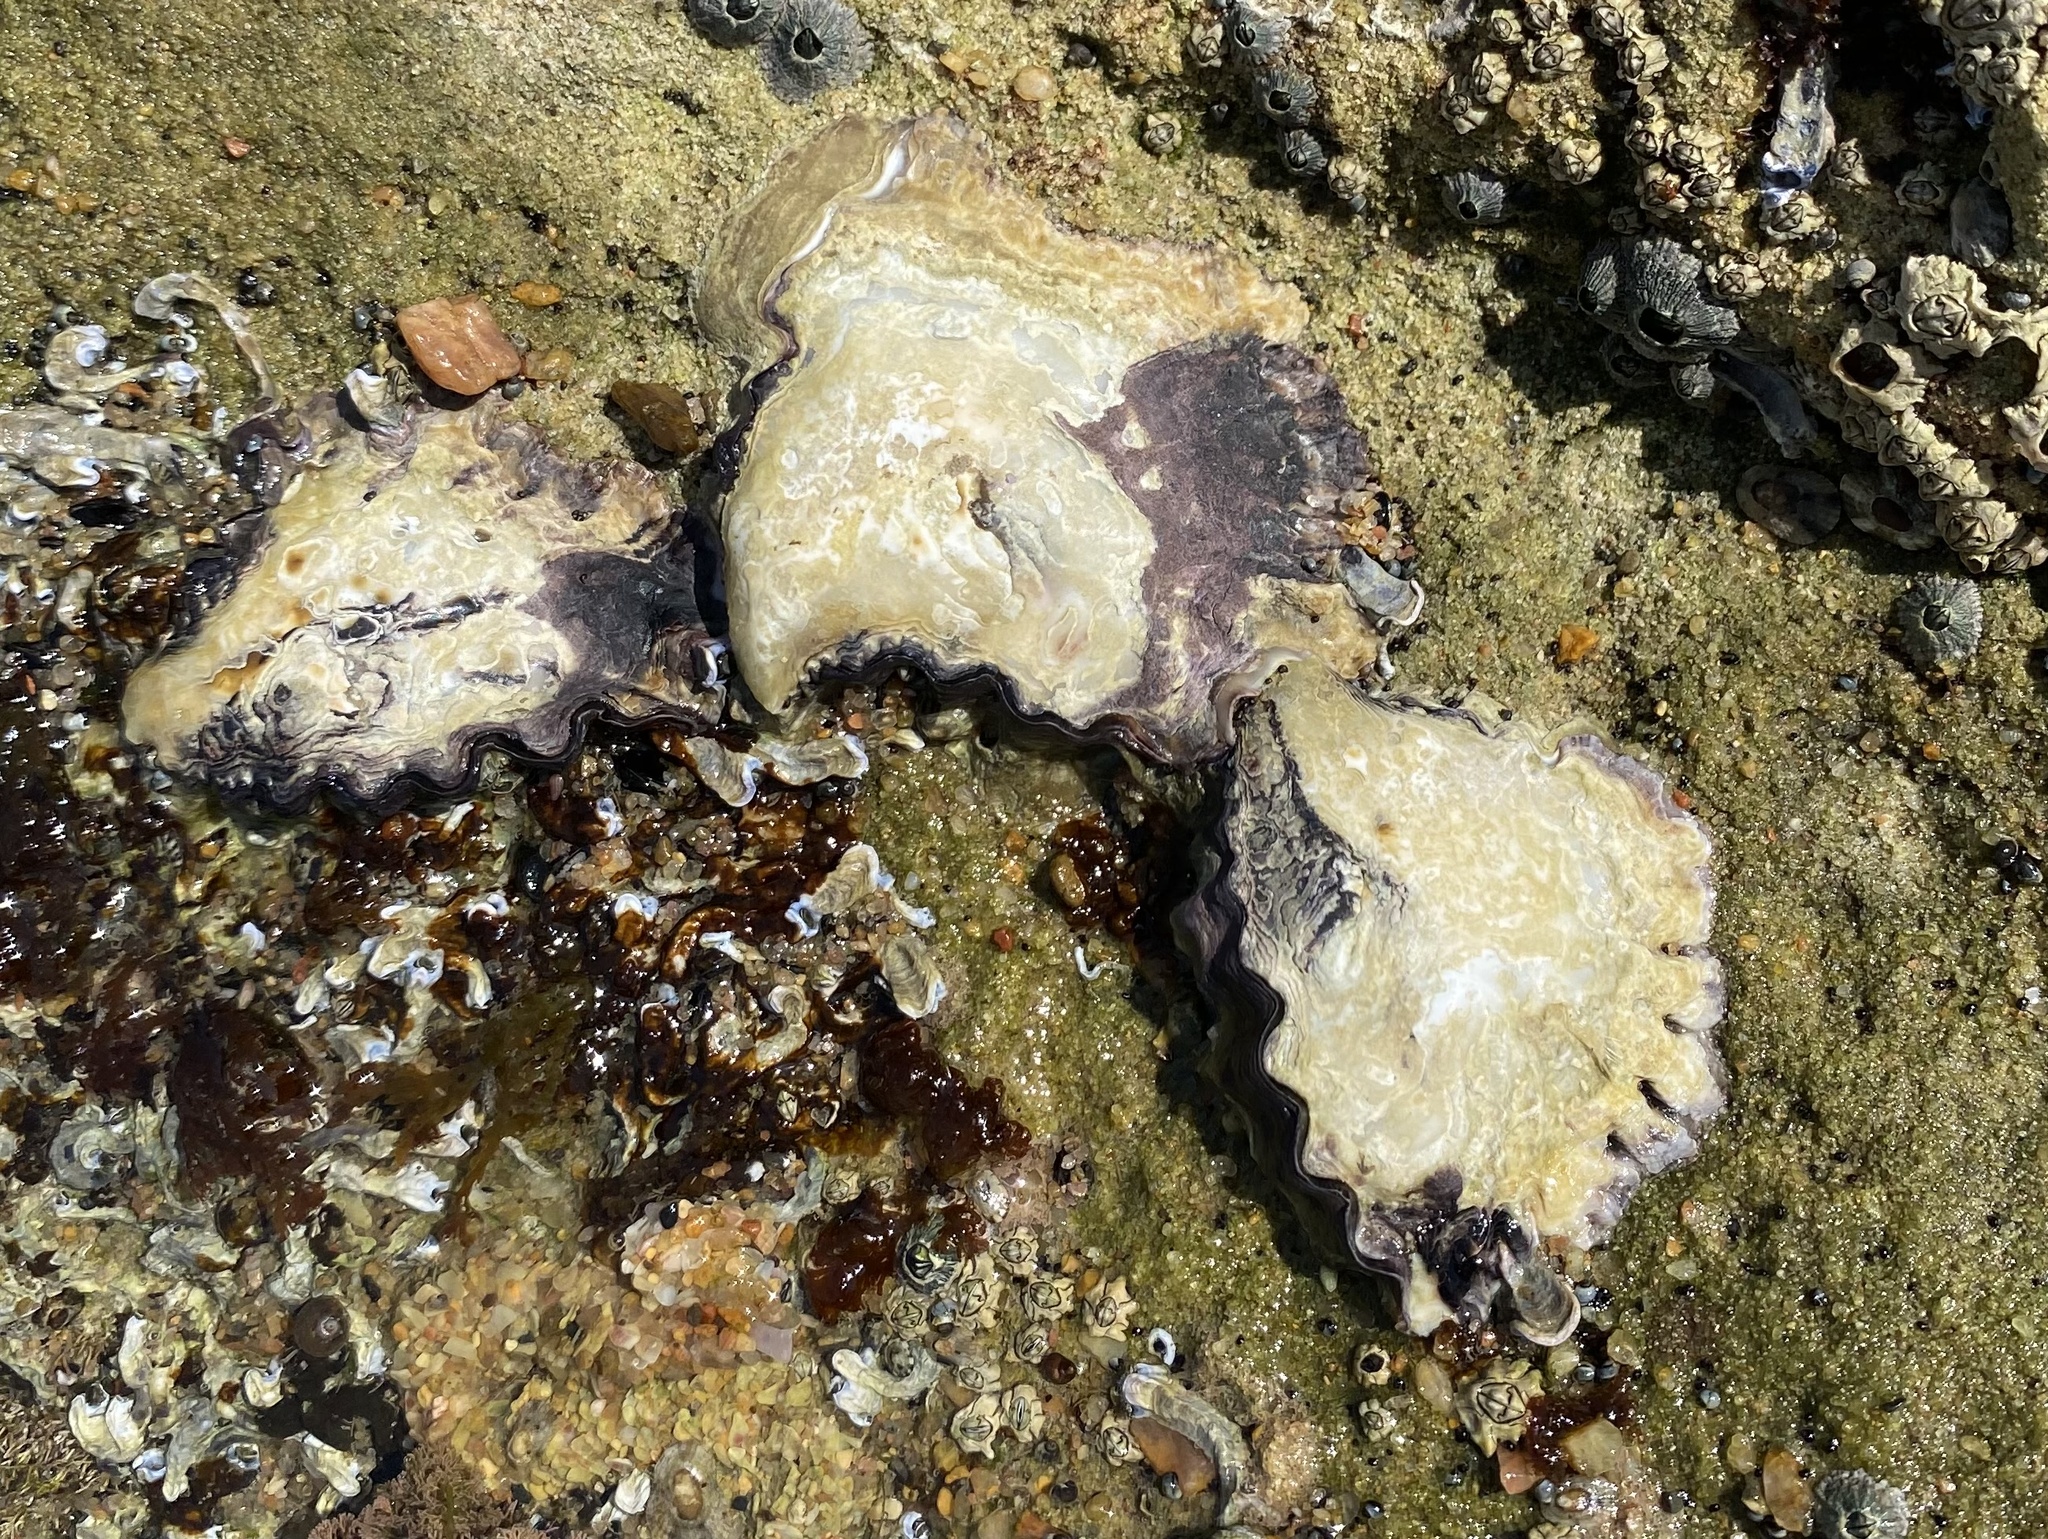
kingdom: Animalia
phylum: Mollusca
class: Bivalvia
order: Ostreida
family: Ostreidae
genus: Saccostrea
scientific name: Saccostrea cuccullata
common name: Natal rock oyster
